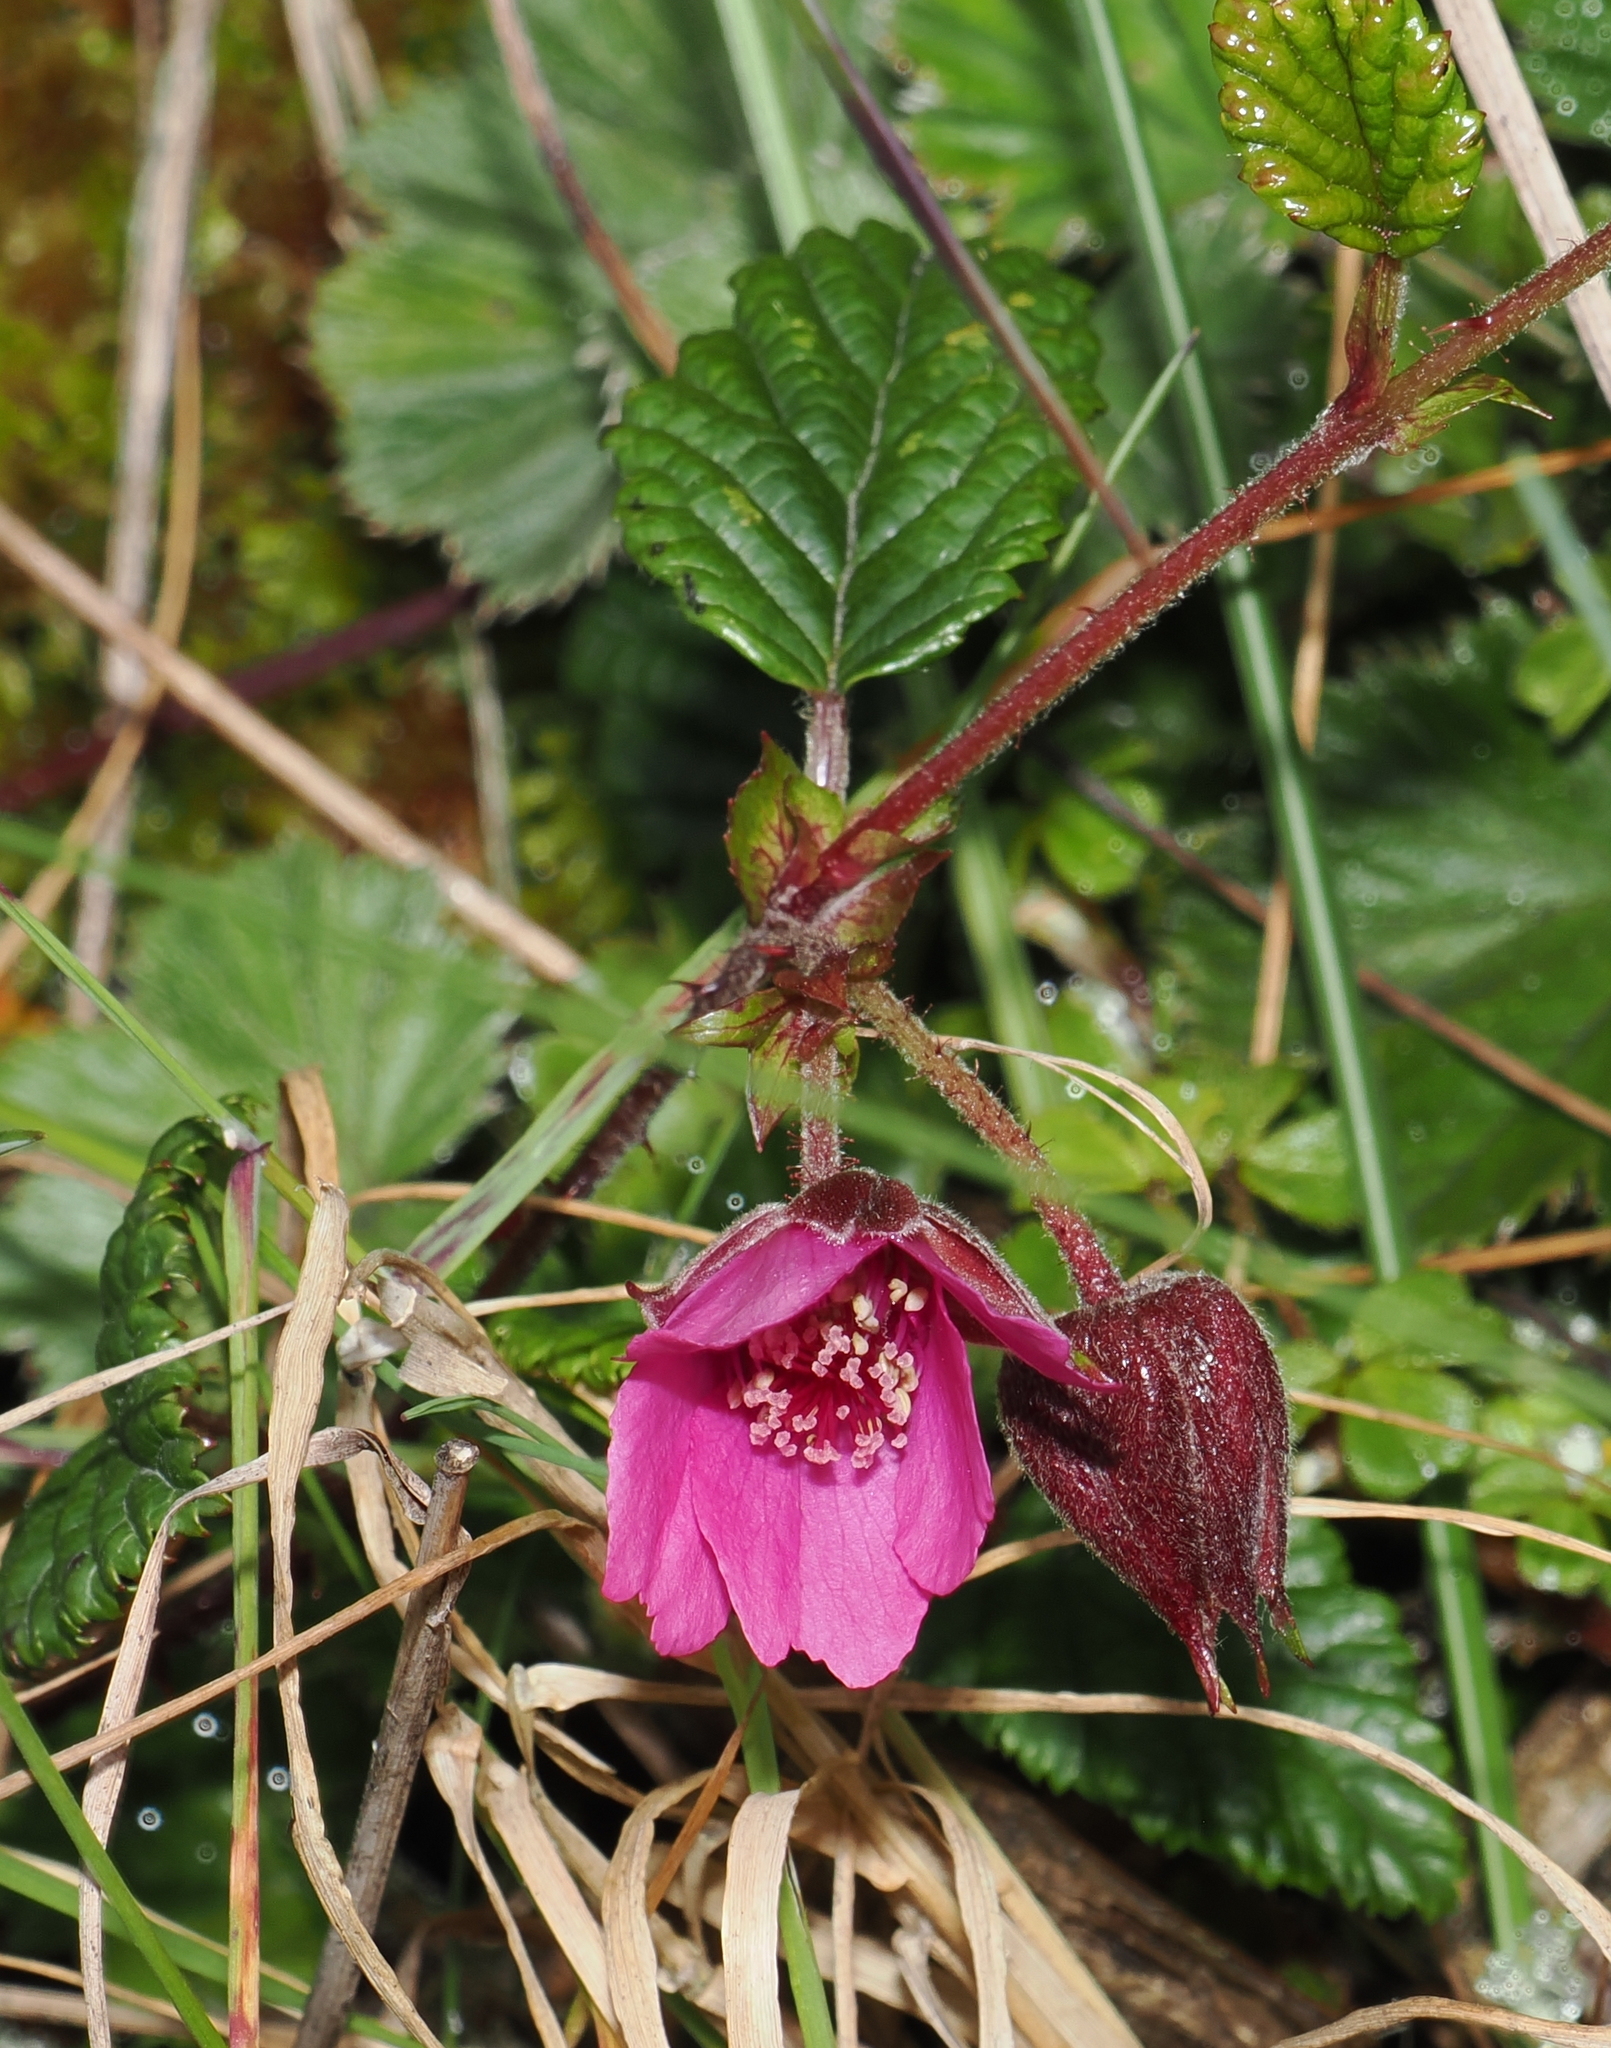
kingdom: Plantae
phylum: Tracheophyta
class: Magnoliopsida
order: Rosales
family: Rosaceae
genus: Rubus
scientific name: Rubus glabratus
